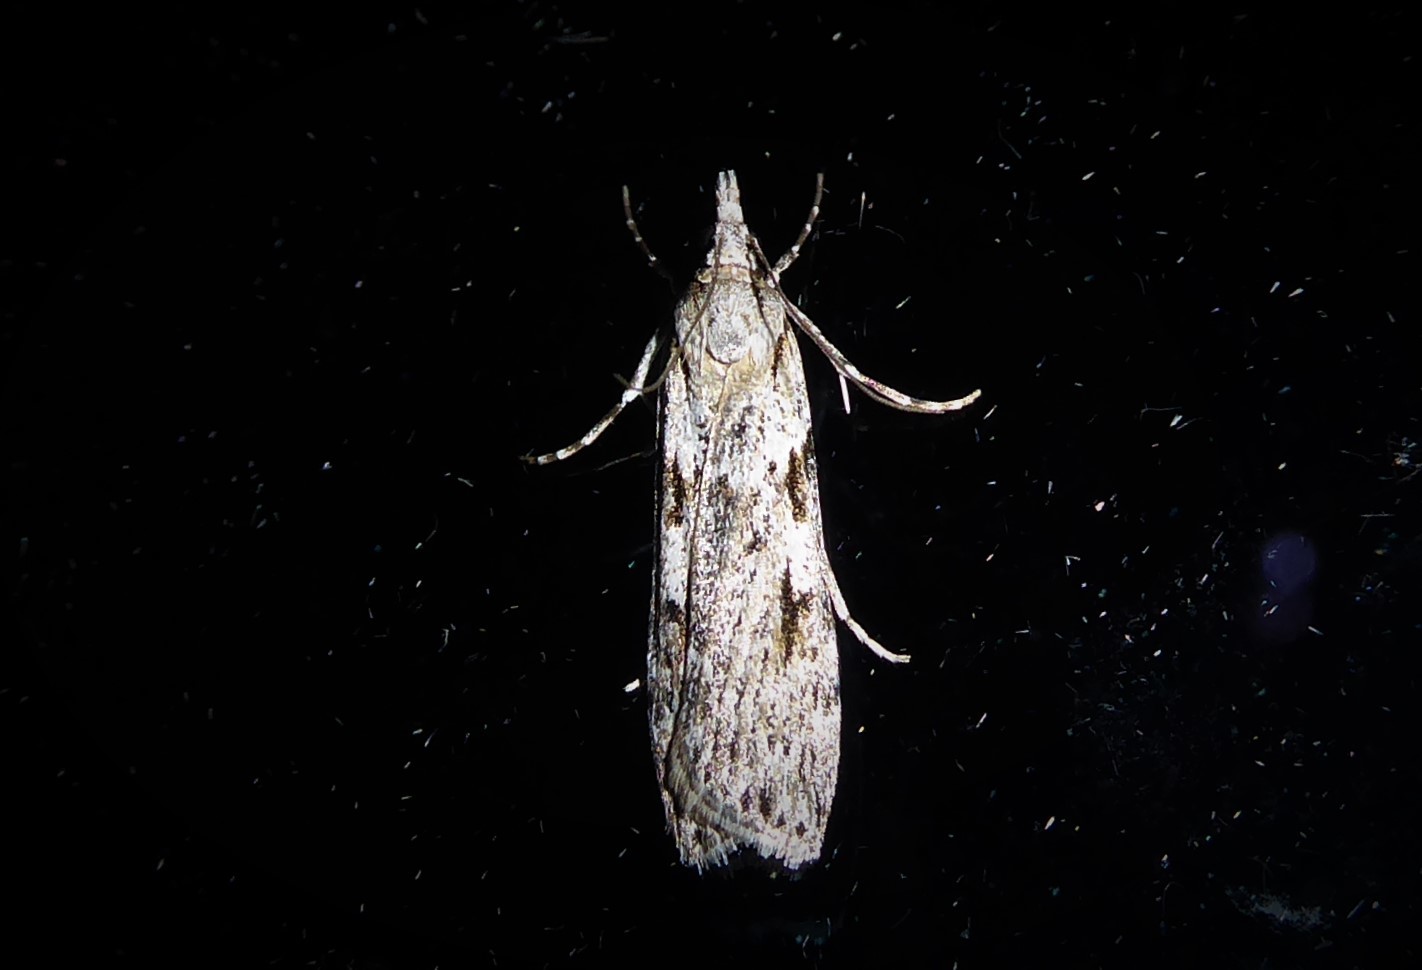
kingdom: Animalia
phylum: Arthropoda
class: Insecta
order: Lepidoptera
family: Crambidae
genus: Scoparia
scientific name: Scoparia halopis
